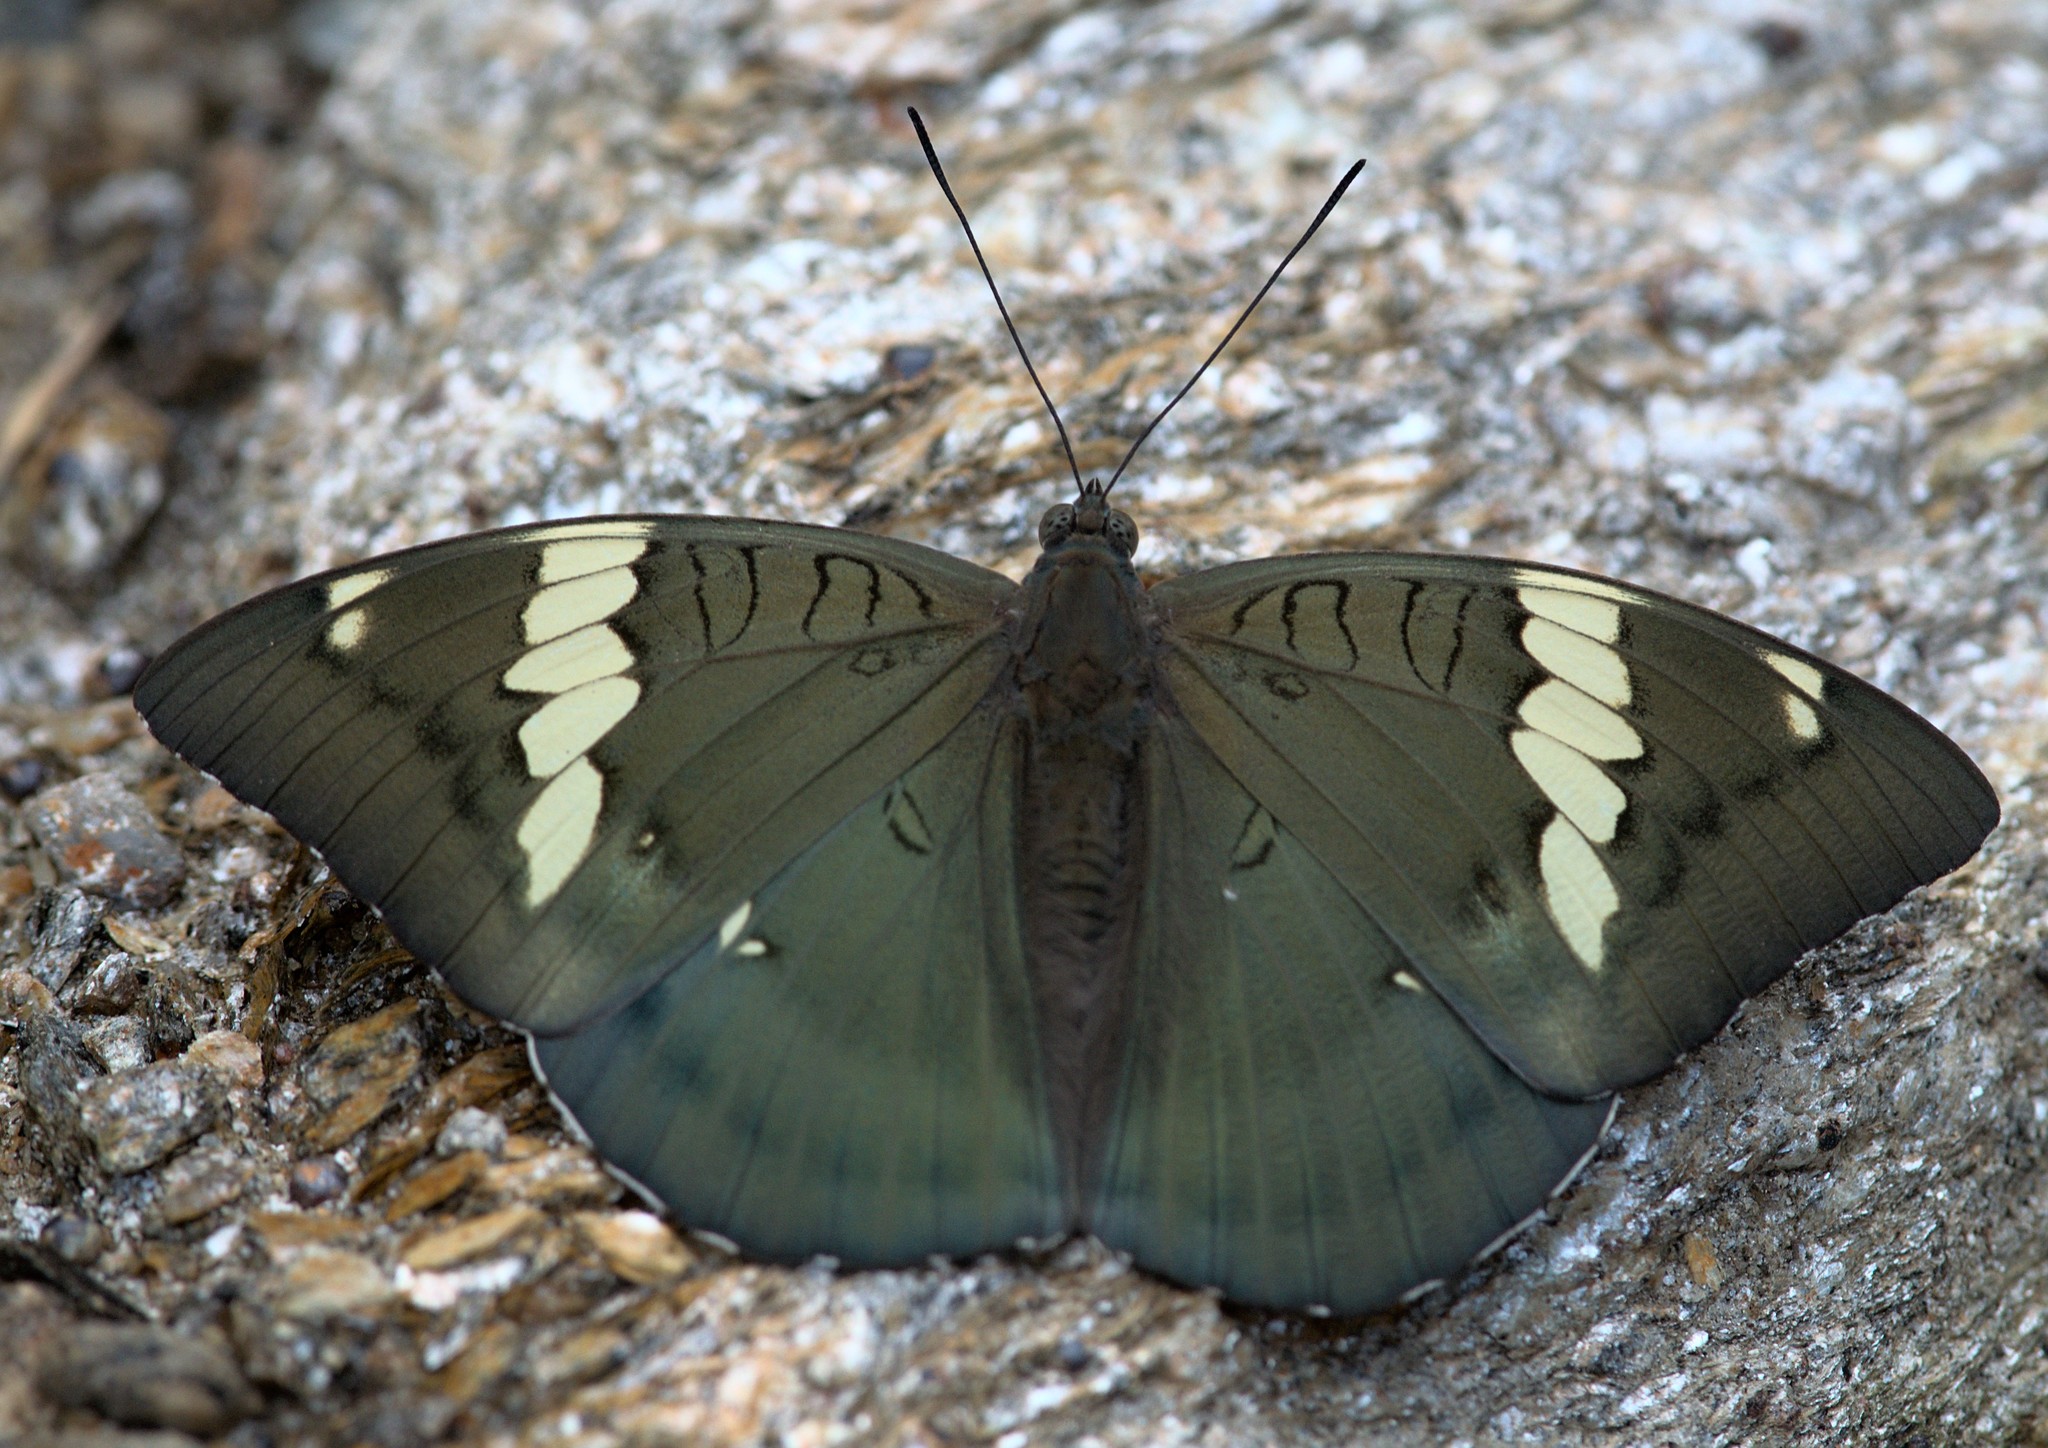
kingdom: Animalia
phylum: Arthropoda
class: Insecta
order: Lepidoptera
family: Nymphalidae
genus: Euthalia
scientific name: Euthalia patala
